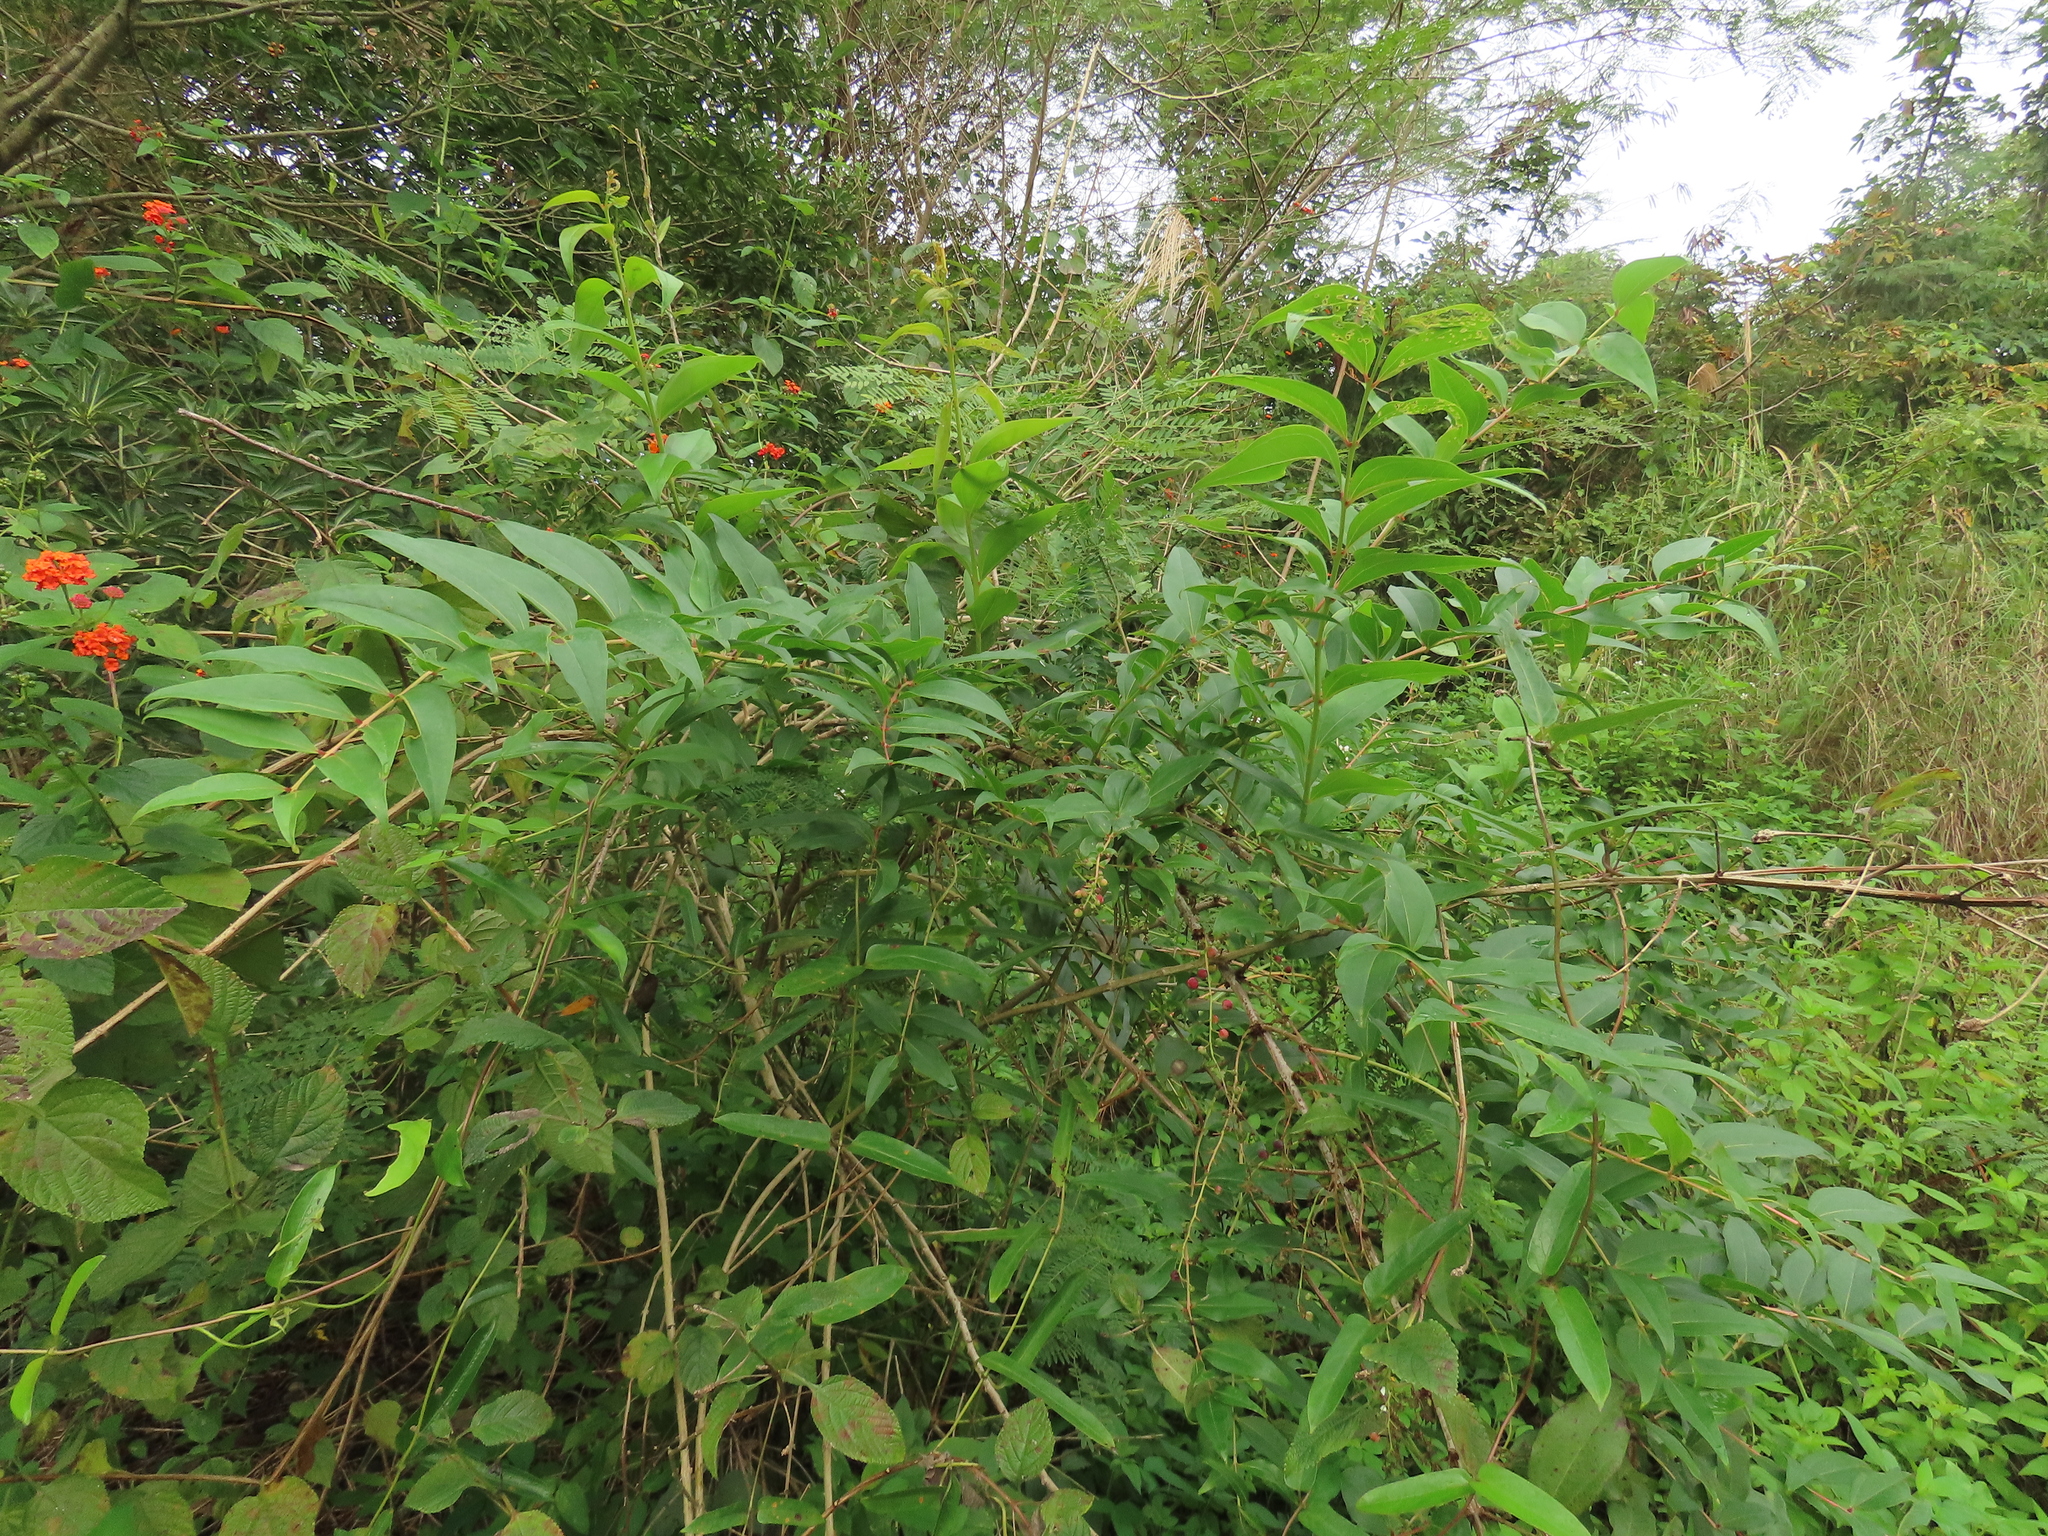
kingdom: Plantae
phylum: Tracheophyta
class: Magnoliopsida
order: Cucurbitales
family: Coriariaceae
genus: Coriaria
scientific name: Coriaria japonica
